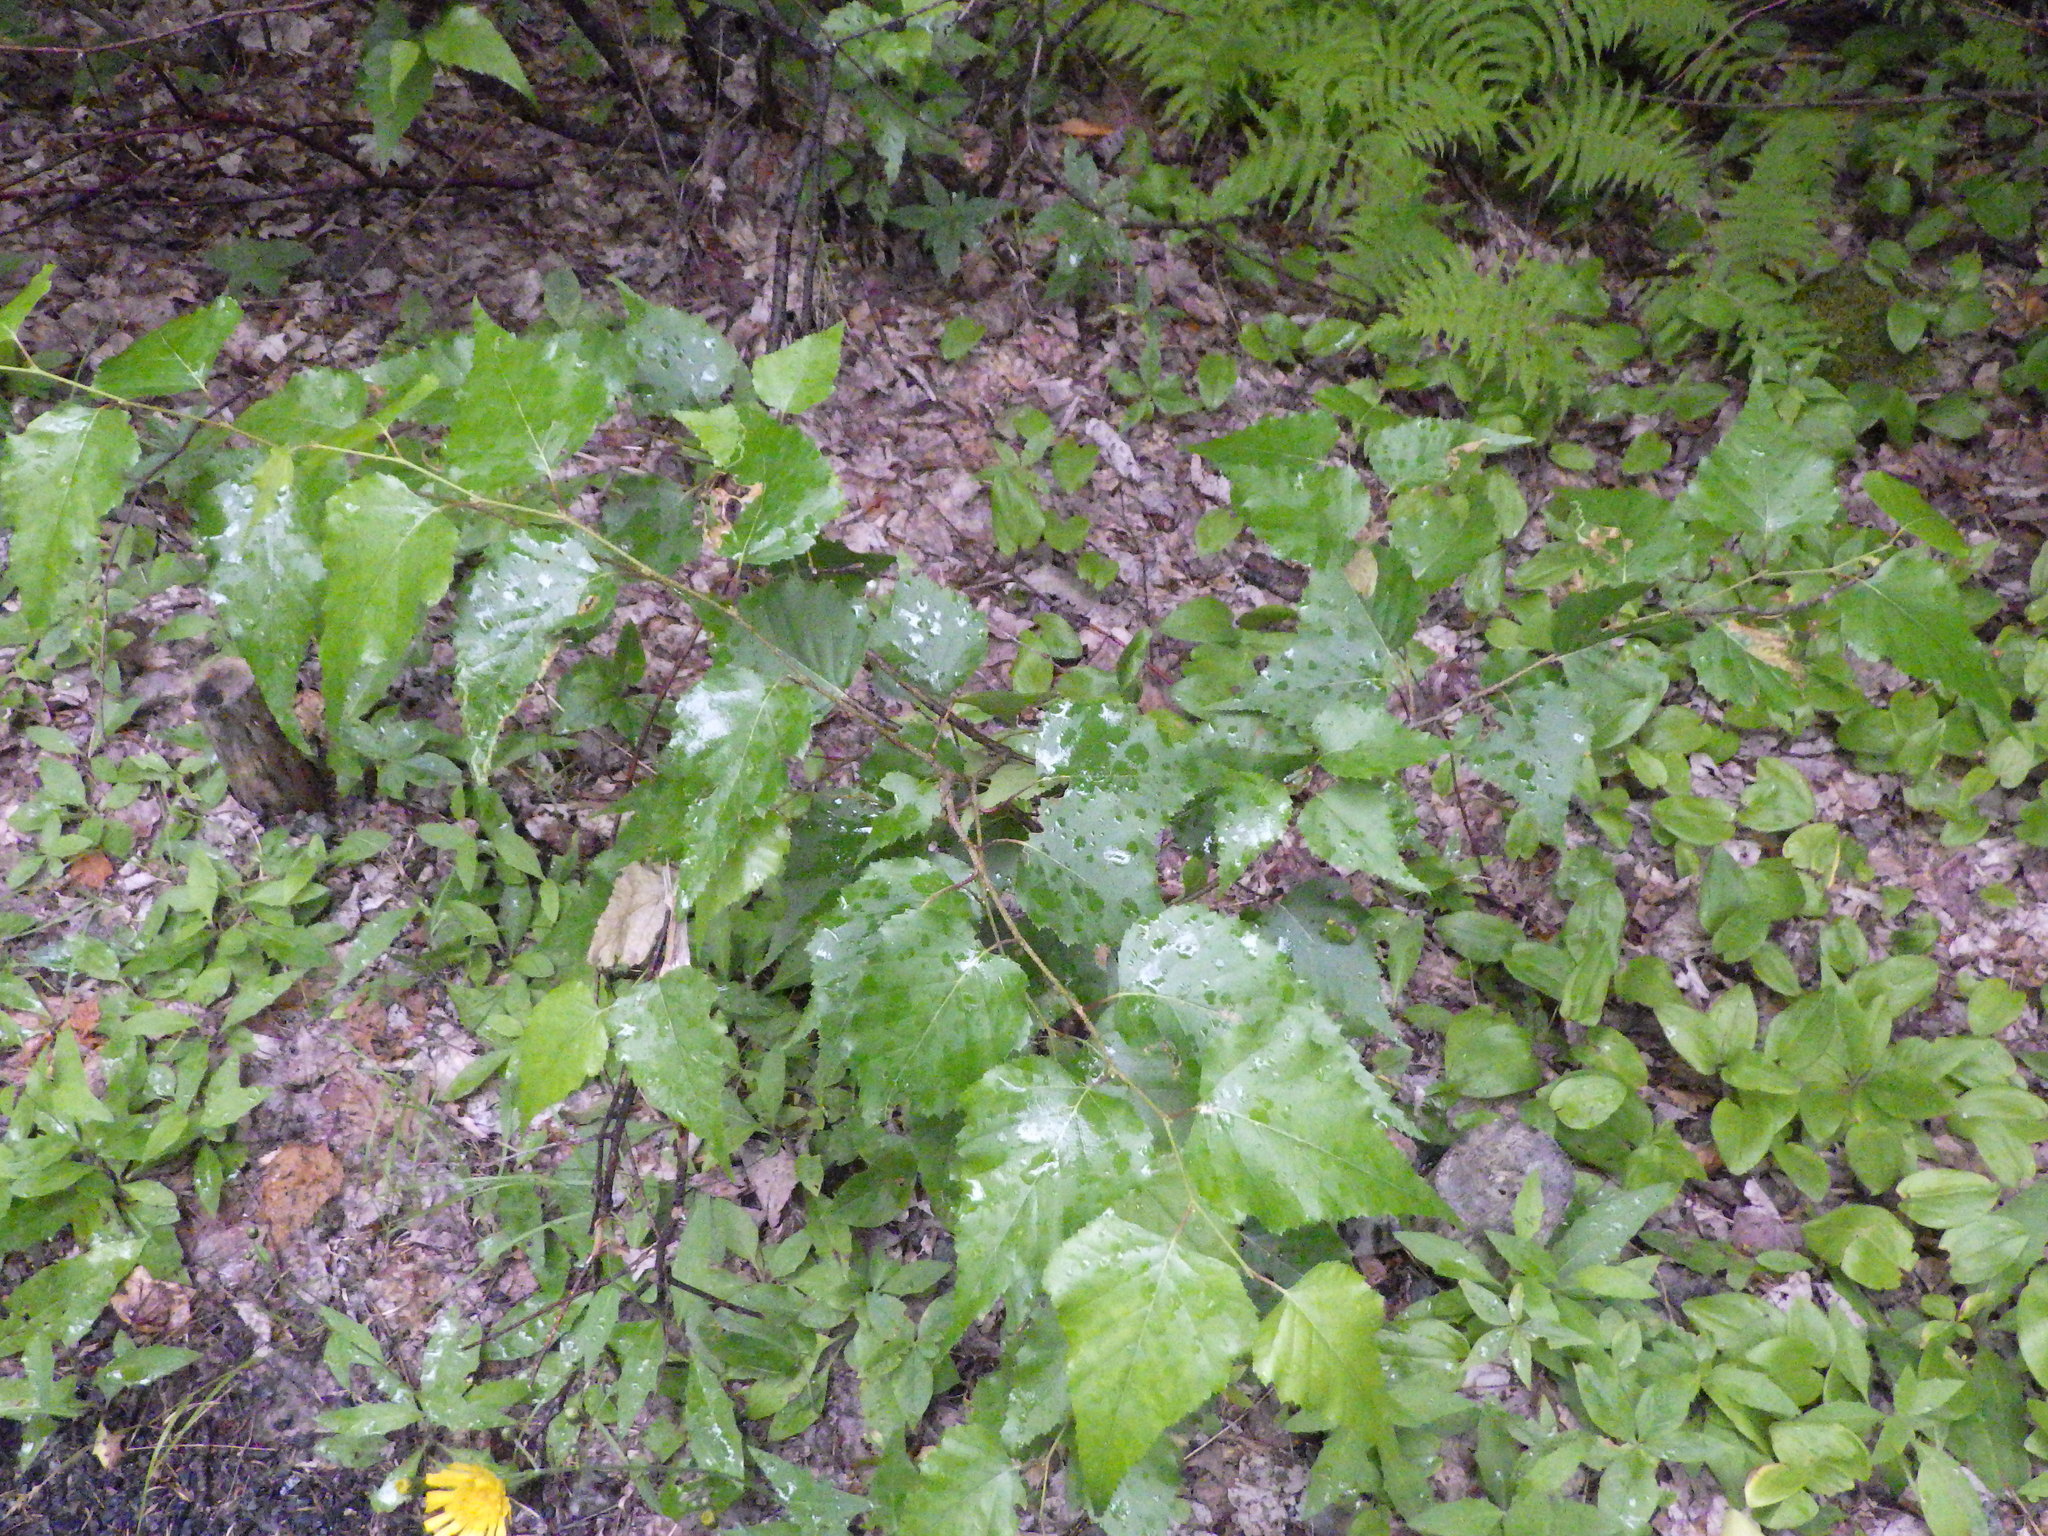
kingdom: Plantae
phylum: Tracheophyta
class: Magnoliopsida
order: Fagales
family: Betulaceae
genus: Betula
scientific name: Betula populifolia
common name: Fire birch
